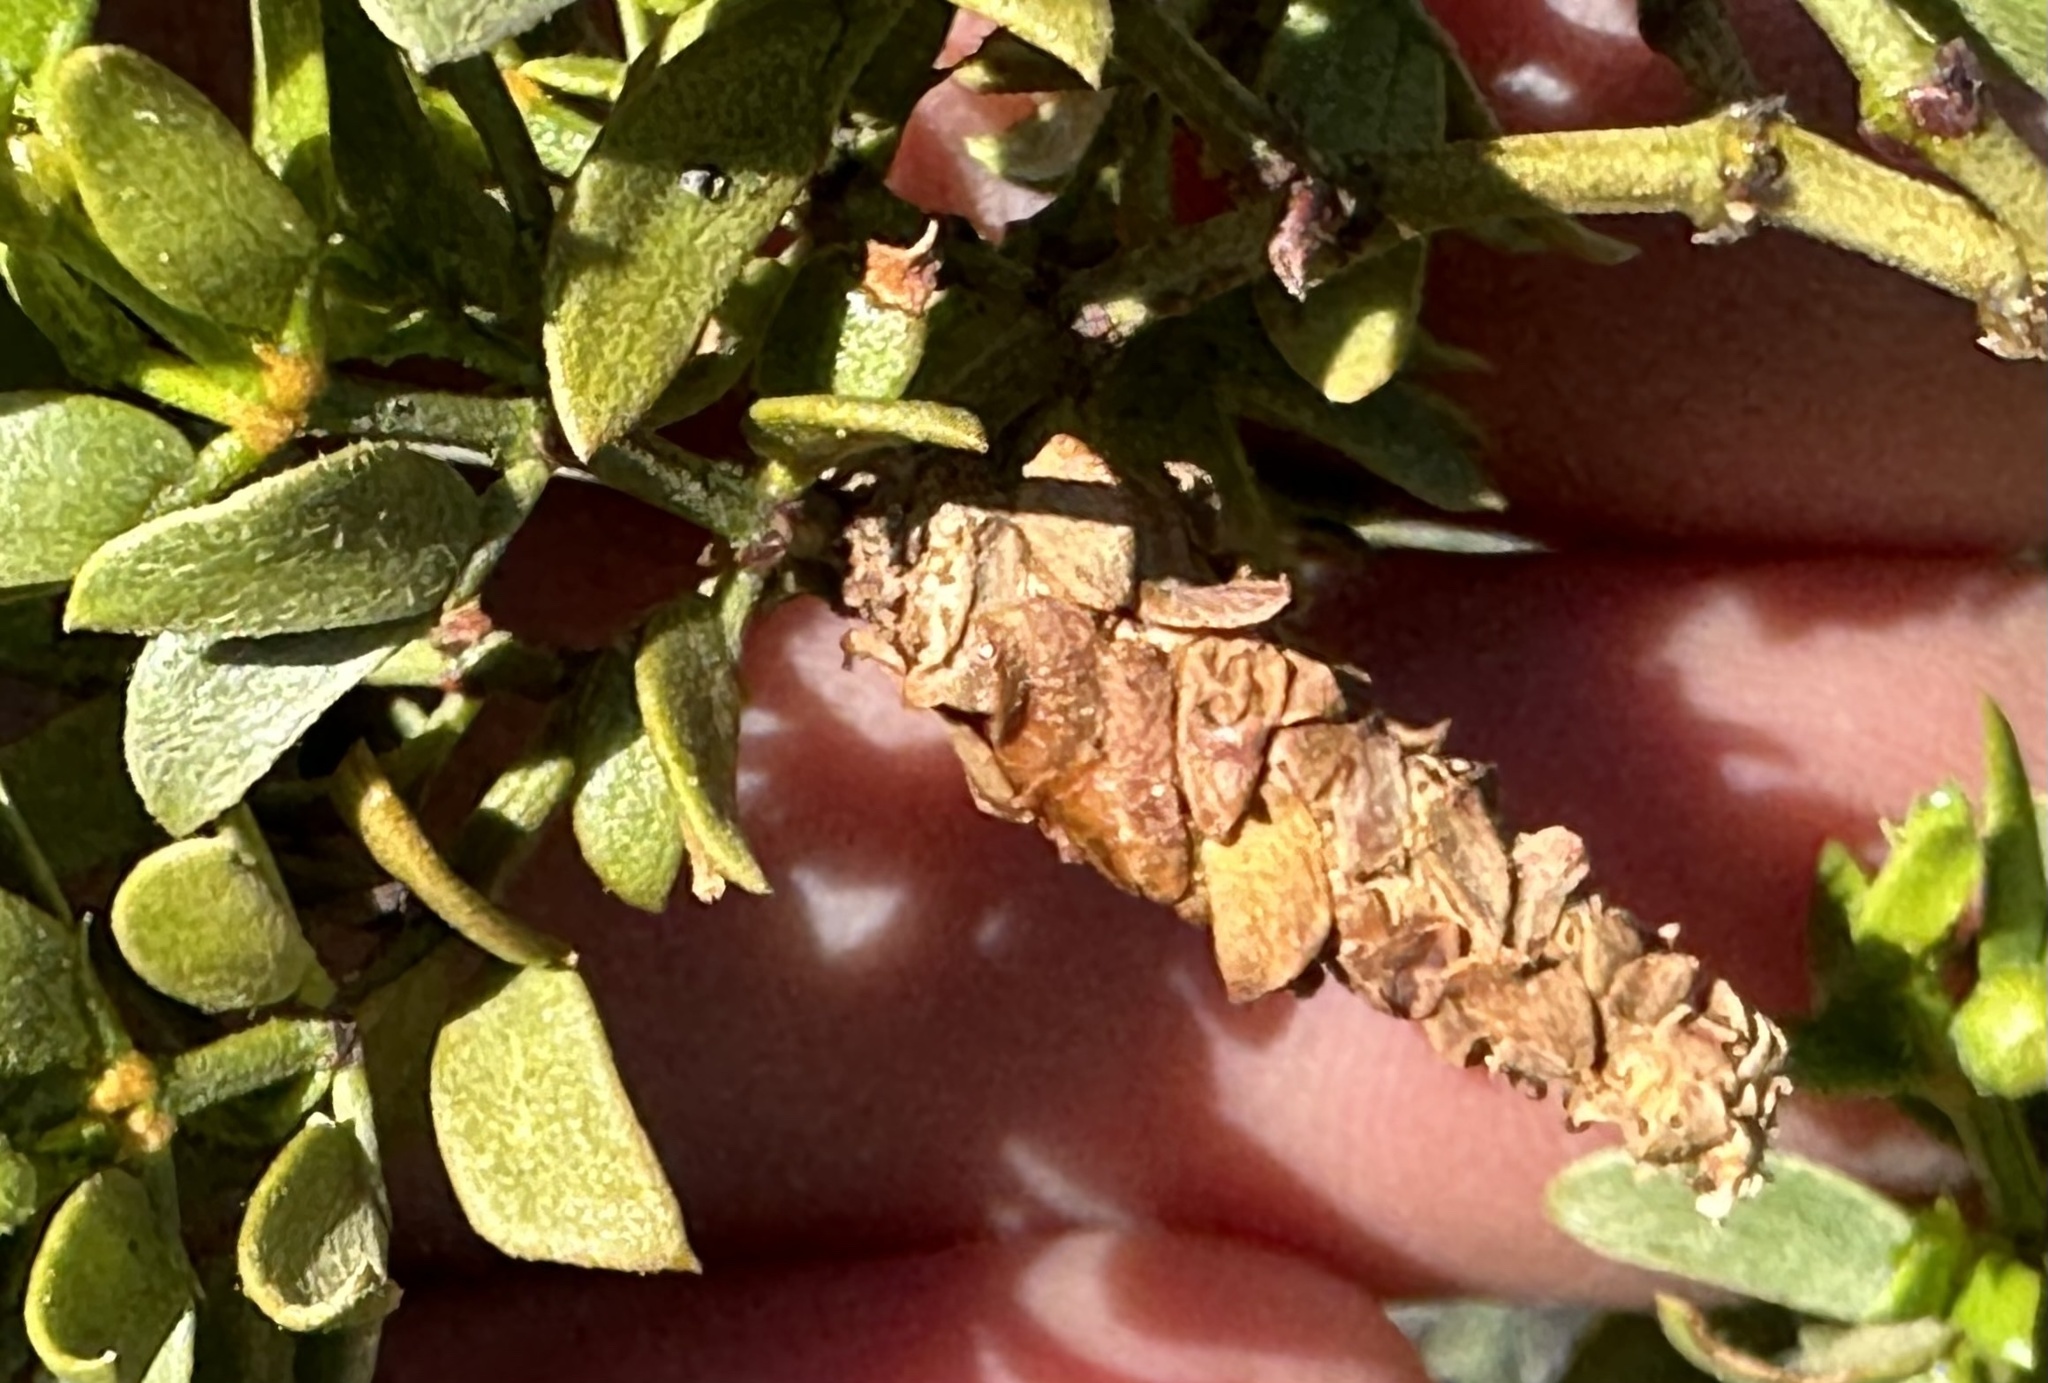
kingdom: Animalia
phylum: Arthropoda
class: Insecta
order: Lepidoptera
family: Psychidae
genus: Thyridopteryx
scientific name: Thyridopteryx meadii
